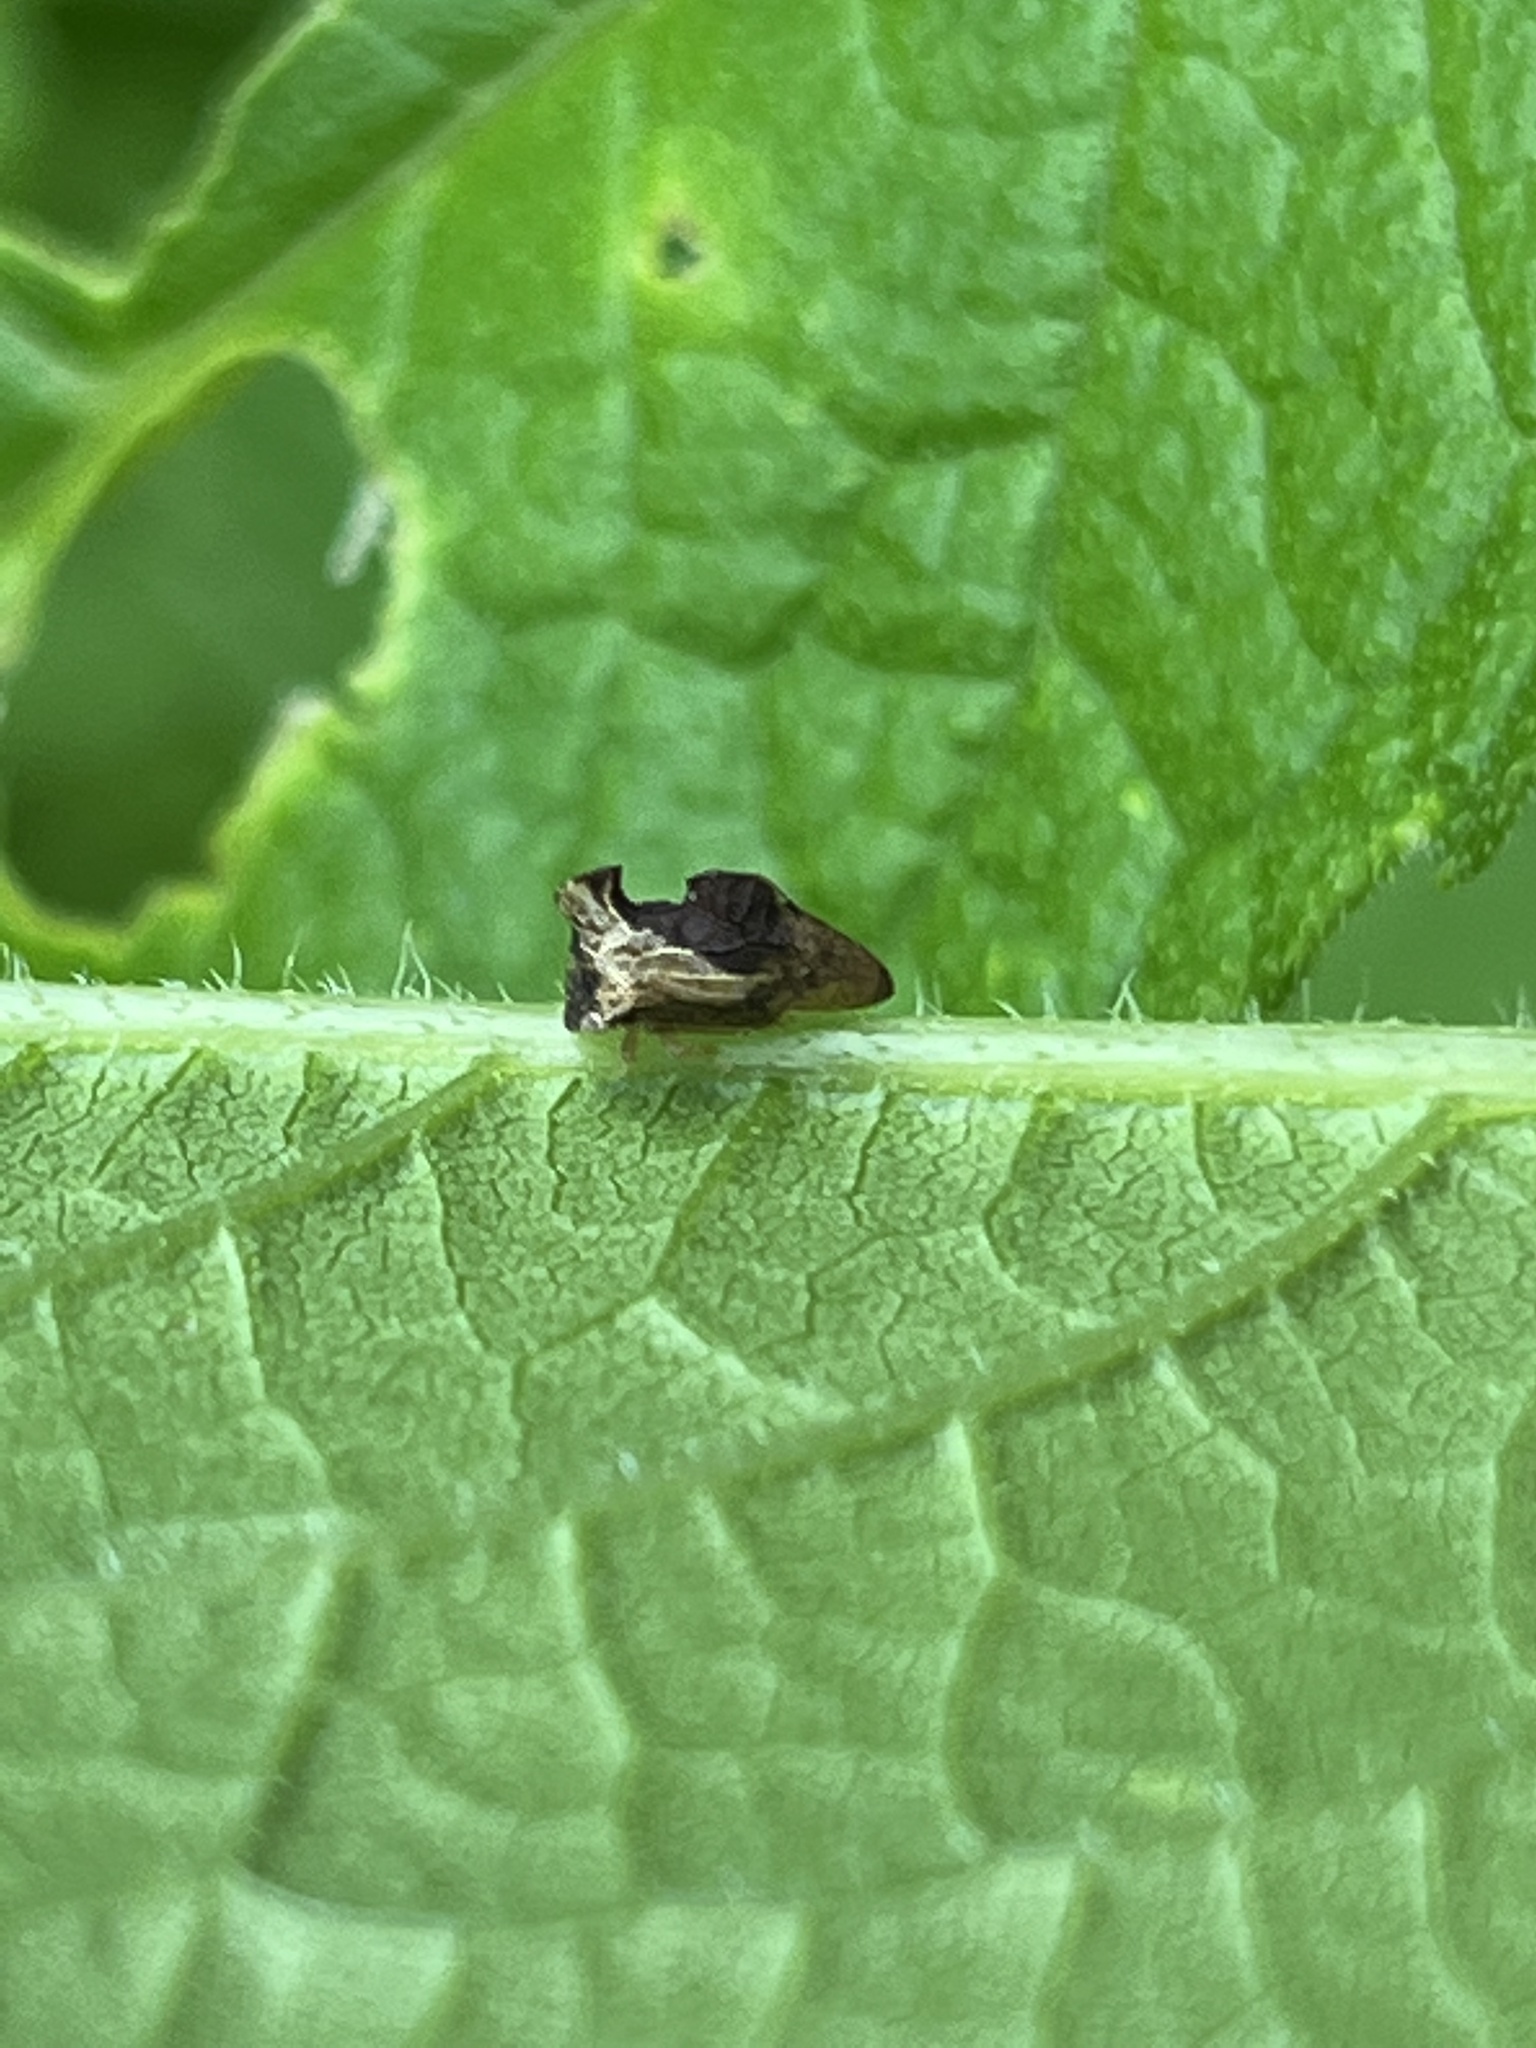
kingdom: Animalia
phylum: Arthropoda
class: Insecta
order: Hemiptera
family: Membracidae
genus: Entylia
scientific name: Entylia carinata
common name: Keeled treehopper
